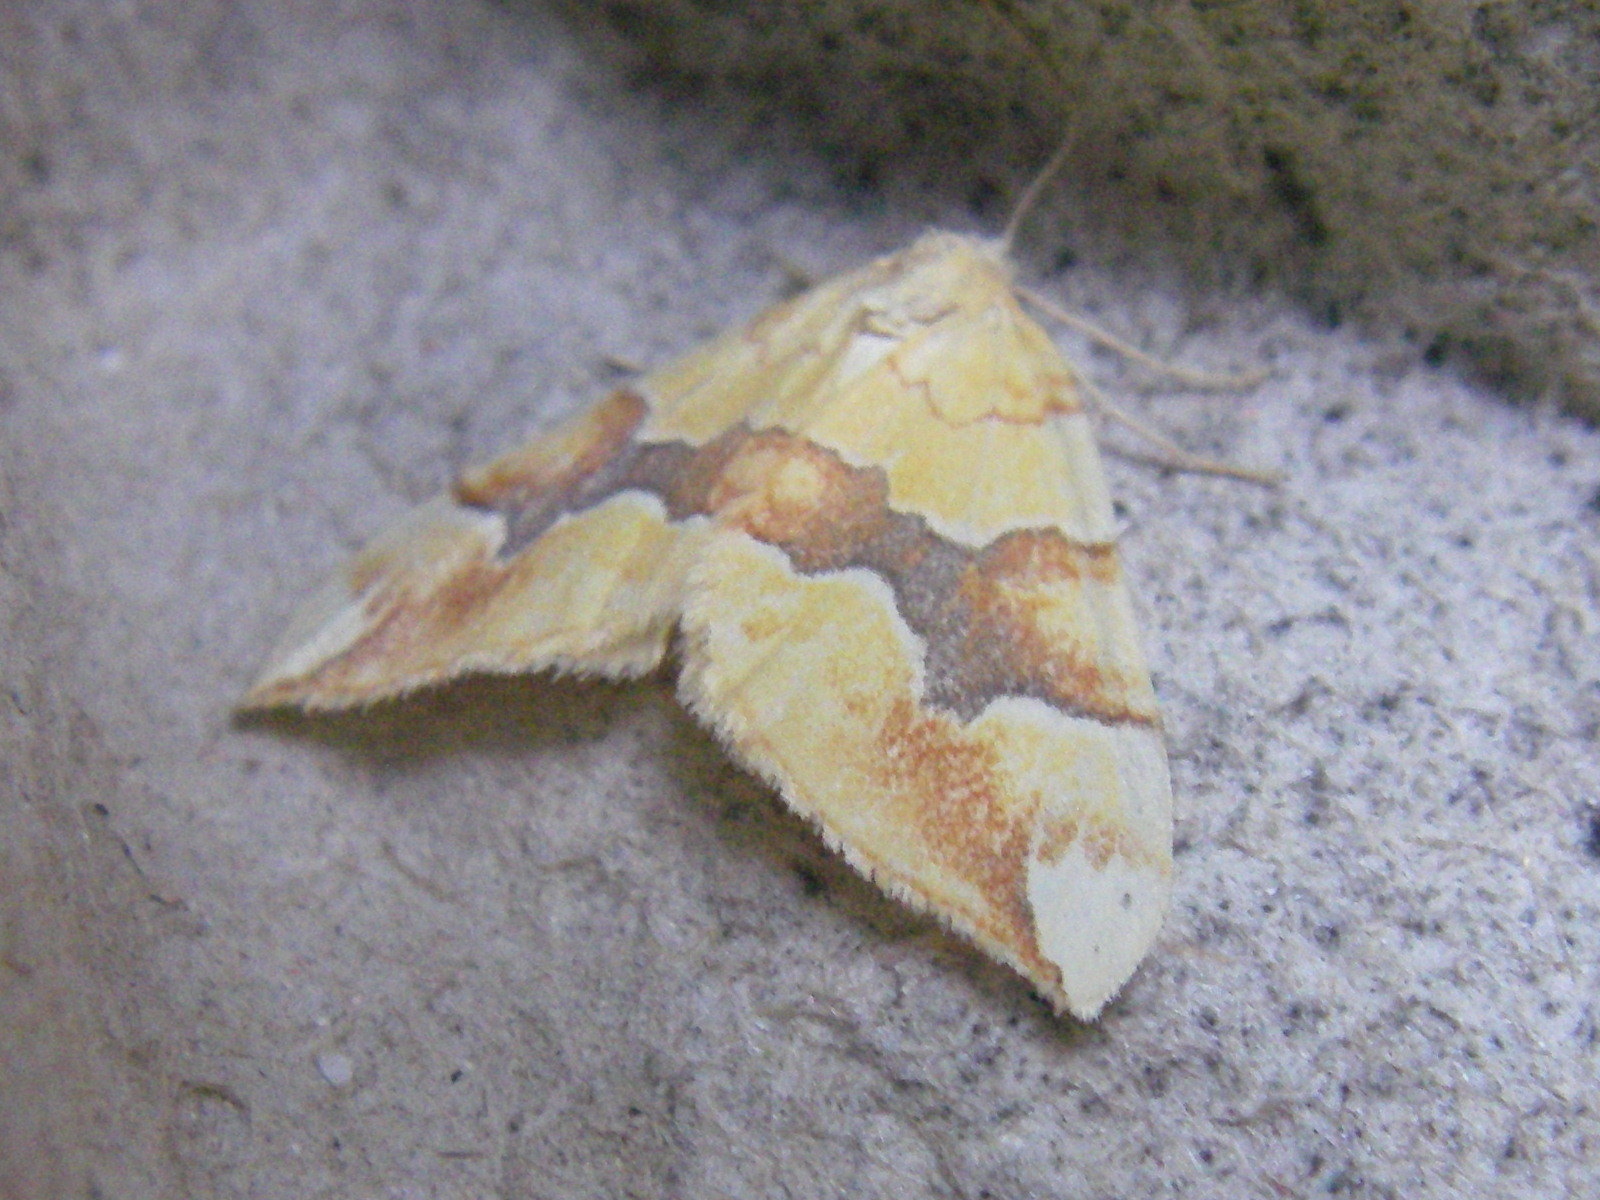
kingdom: Animalia
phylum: Arthropoda
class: Insecta
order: Lepidoptera
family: Geometridae
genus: Cidaria
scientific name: Cidaria fulvata
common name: Barred yellow
